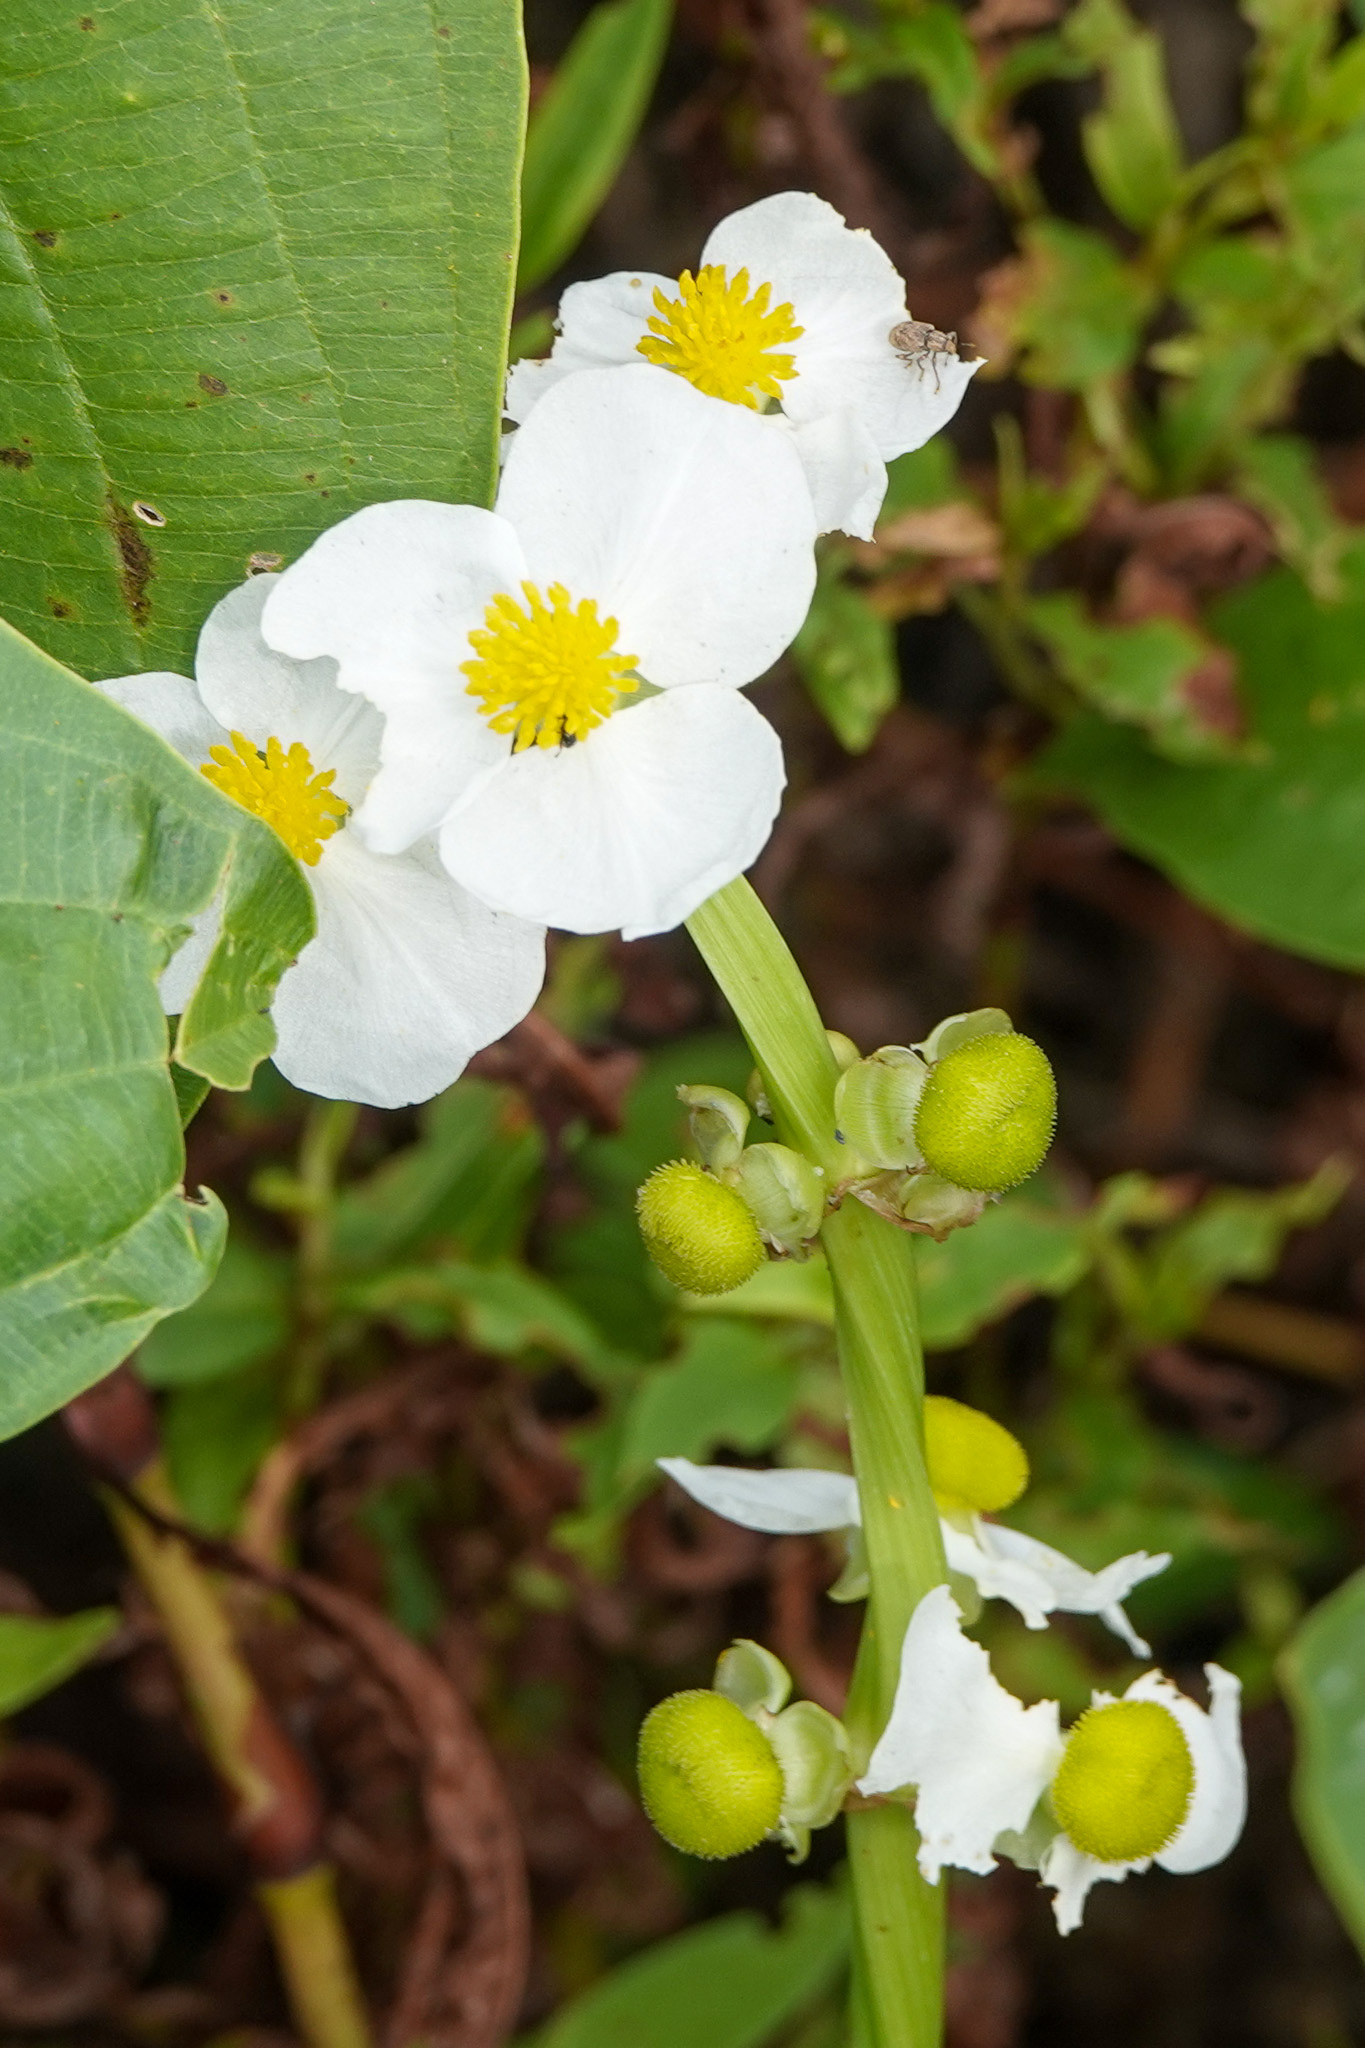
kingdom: Plantae
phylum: Tracheophyta
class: Liliopsida
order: Alismatales
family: Alismataceae
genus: Sagittaria
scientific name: Sagittaria latifolia
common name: Duck-potato
